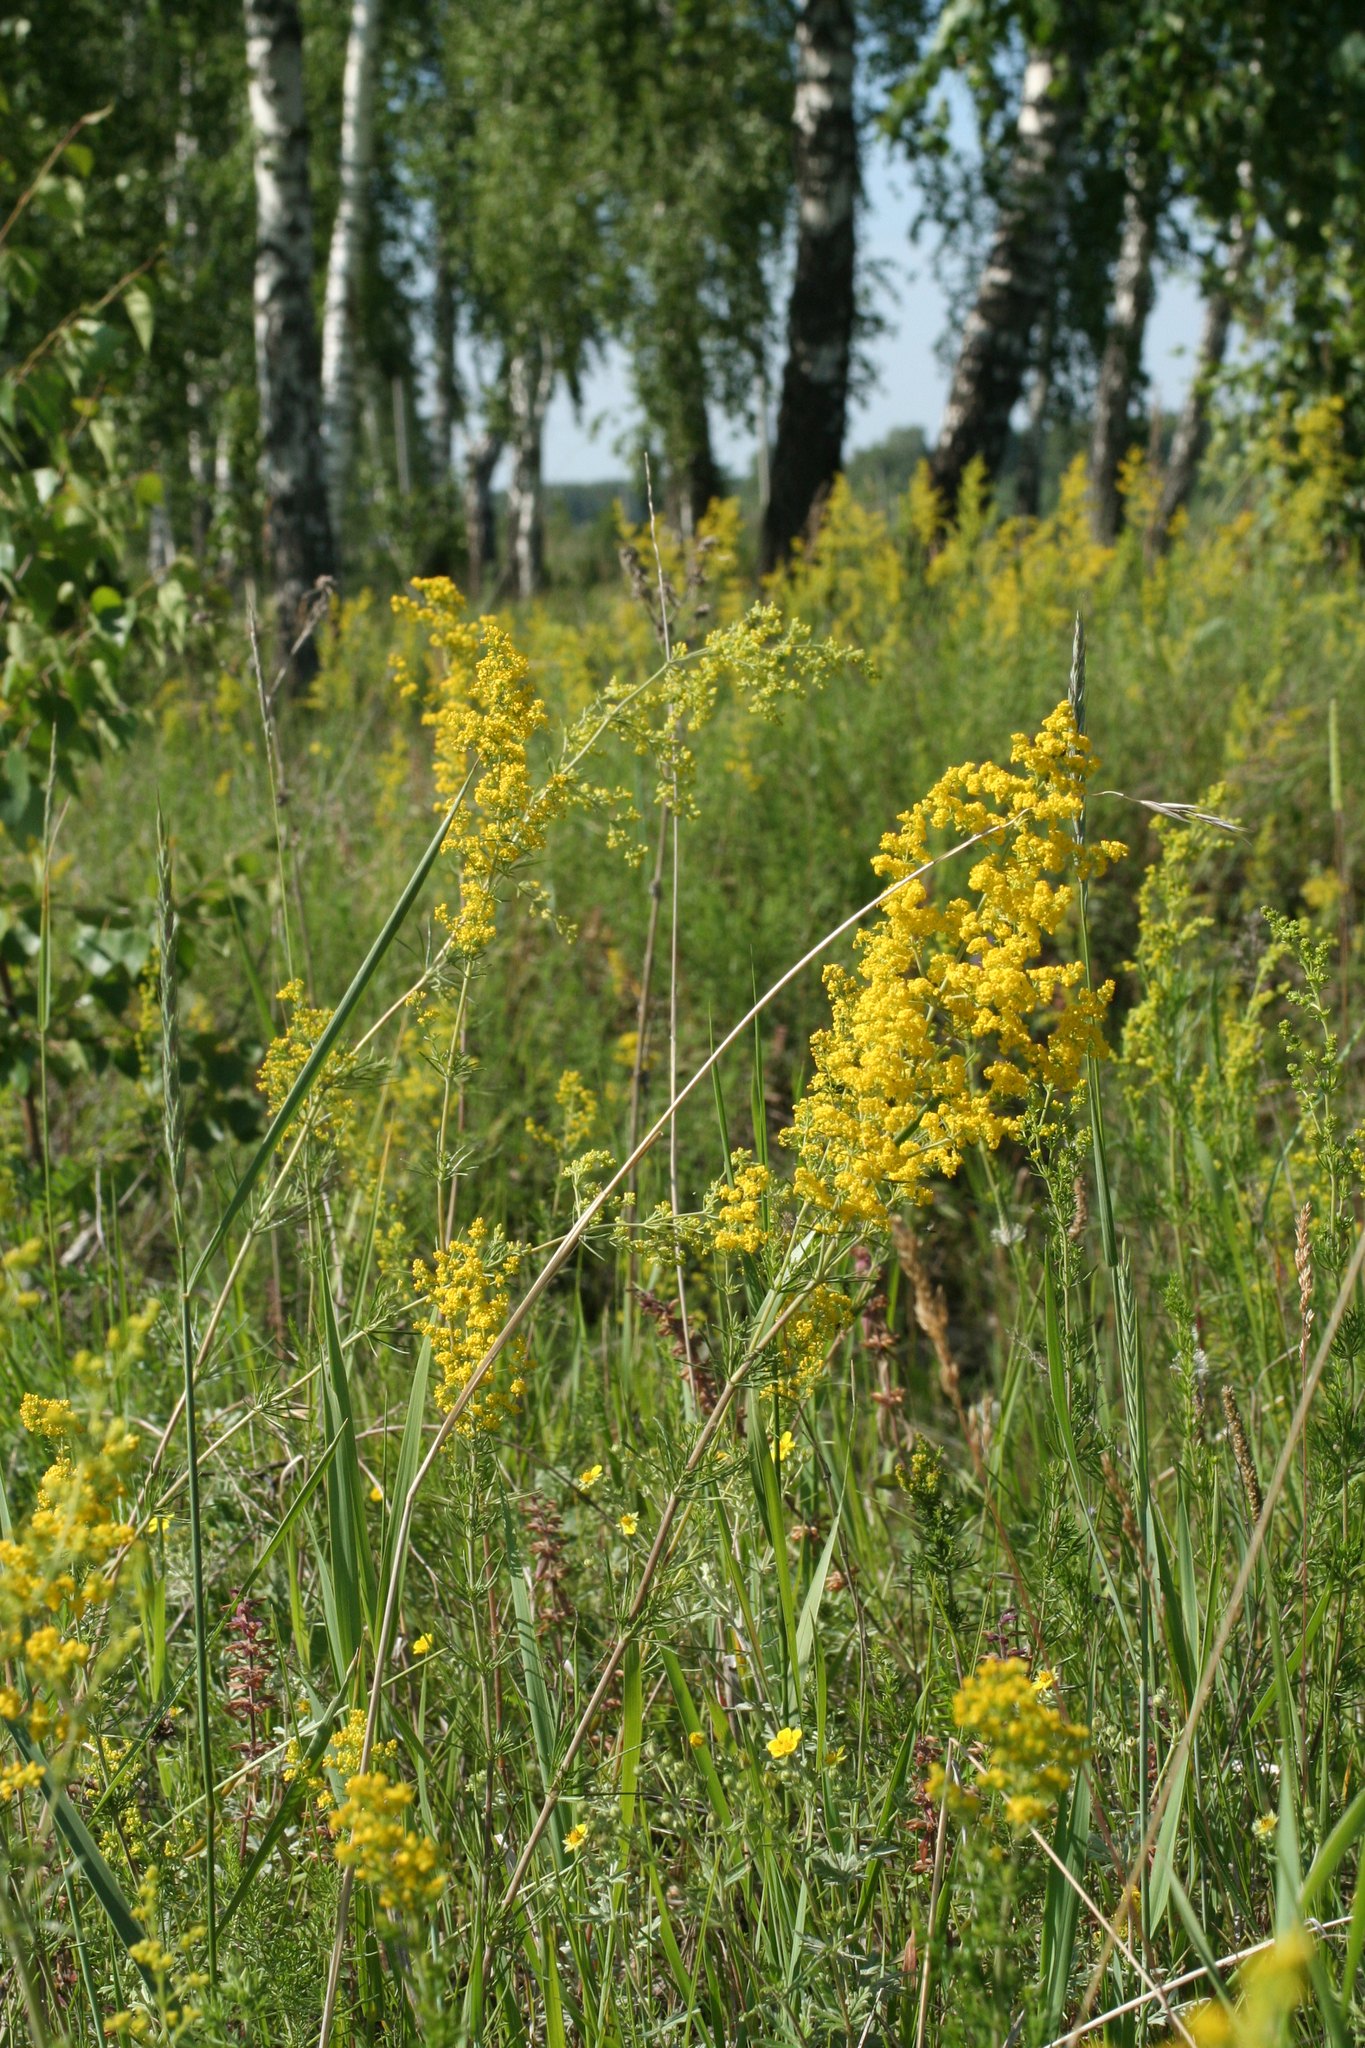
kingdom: Plantae
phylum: Tracheophyta
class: Magnoliopsida
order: Gentianales
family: Rubiaceae
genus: Galium
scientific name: Galium verum
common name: Lady's bedstraw
